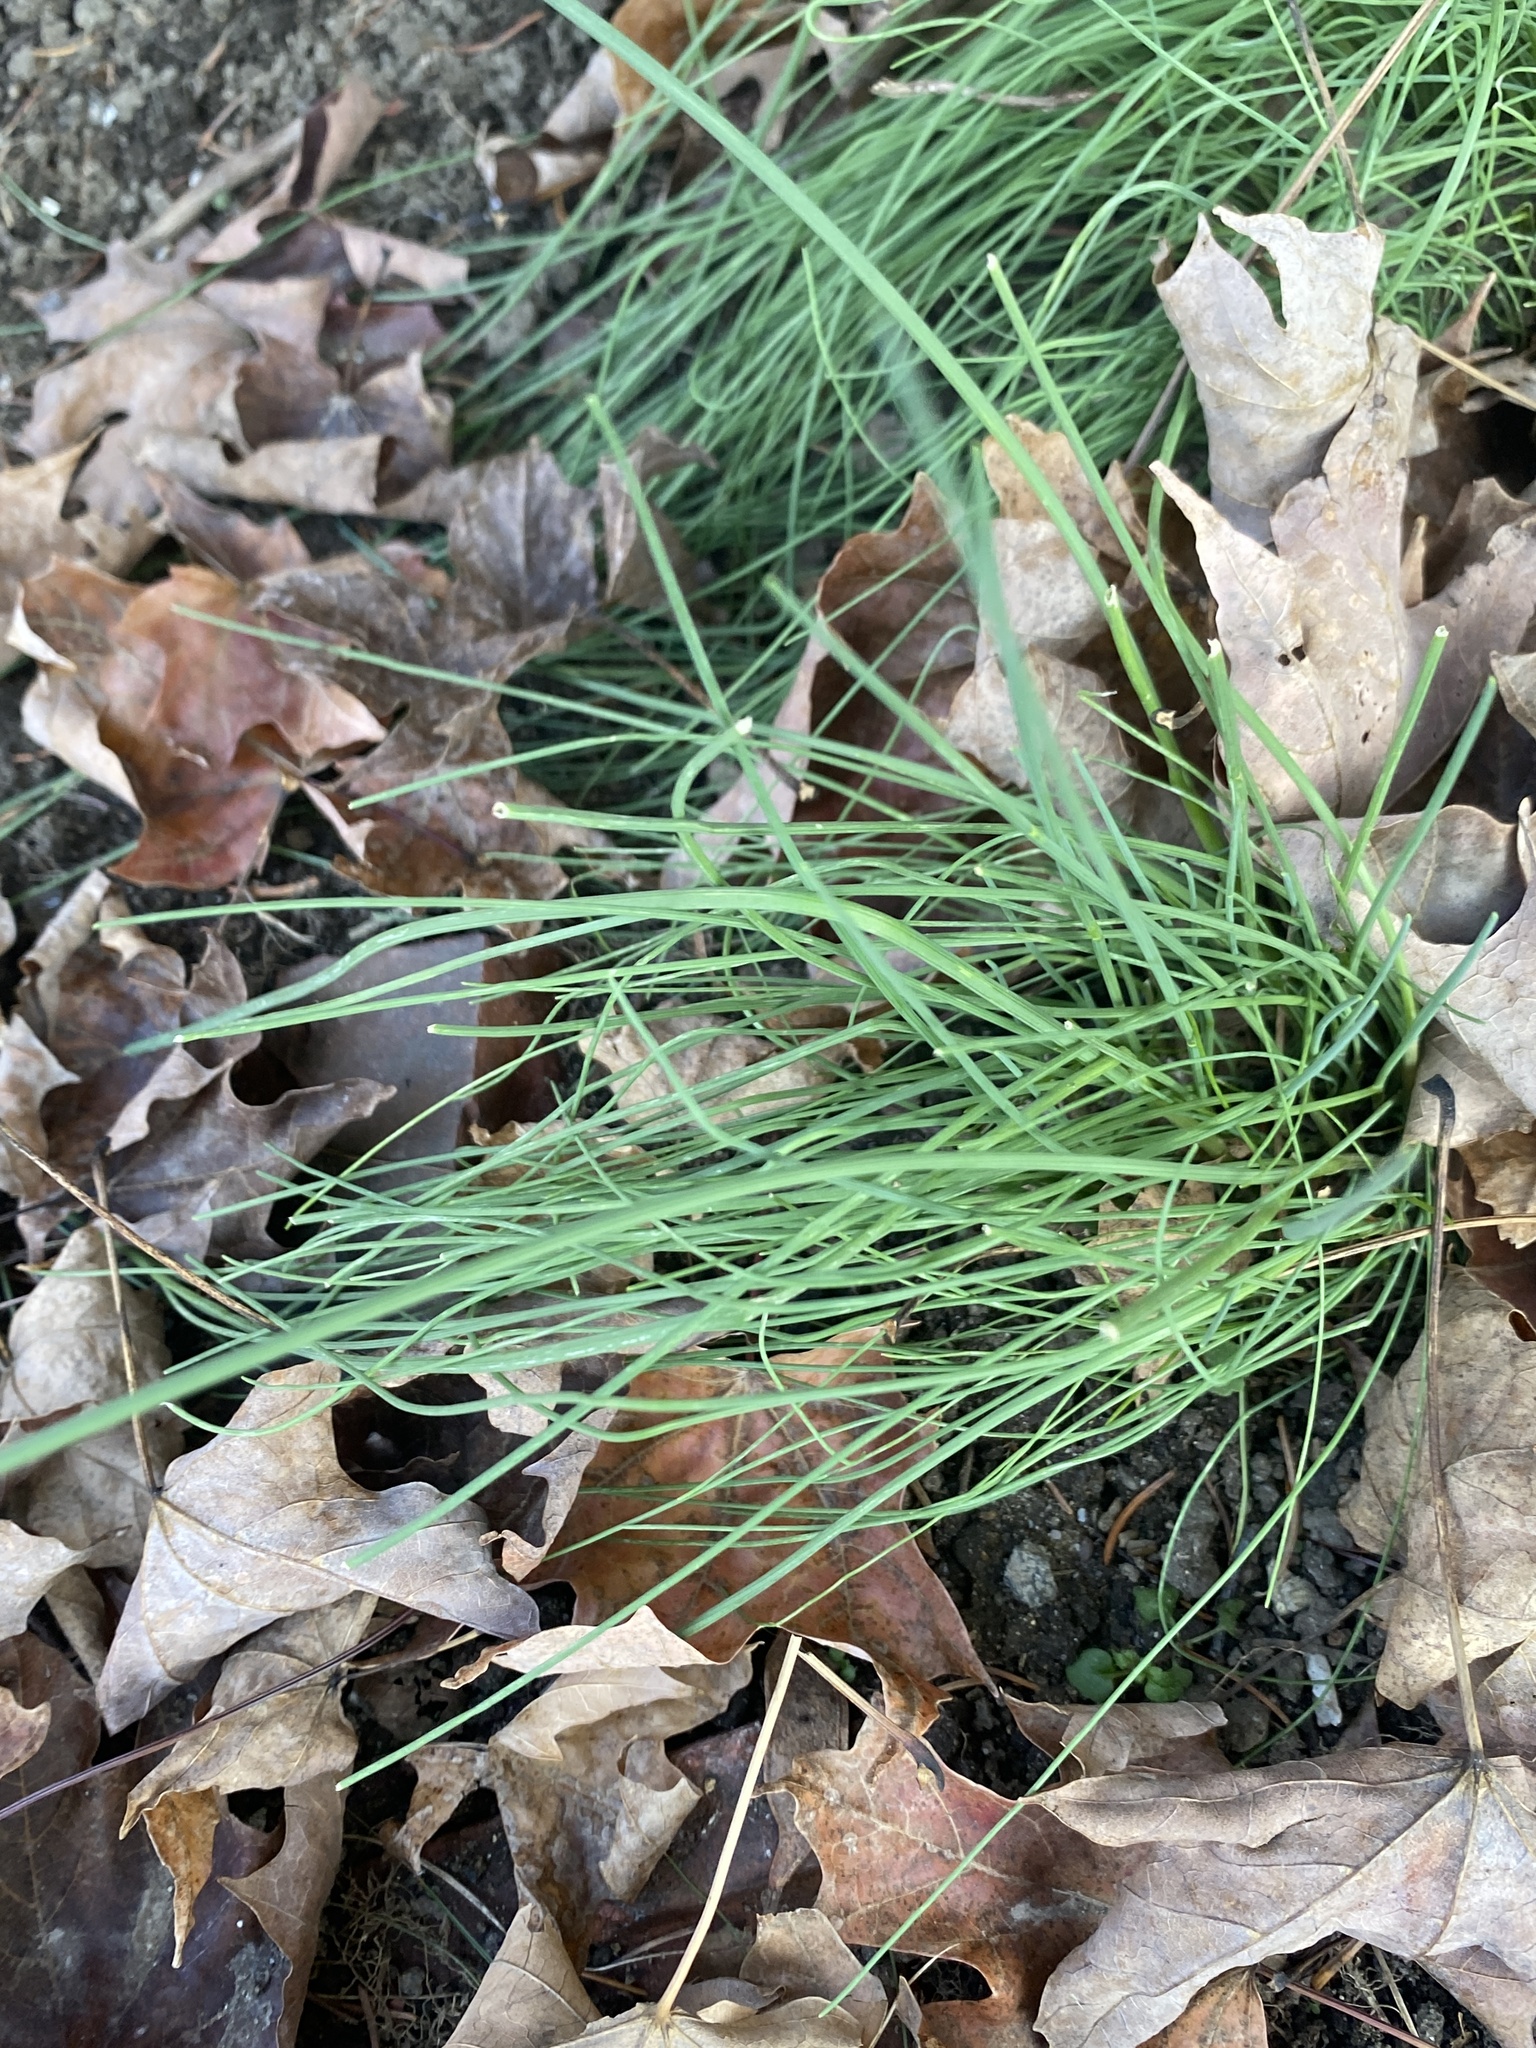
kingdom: Plantae
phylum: Tracheophyta
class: Liliopsida
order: Asparagales
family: Amaryllidaceae
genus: Allium
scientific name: Allium vineale
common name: Crow garlic
